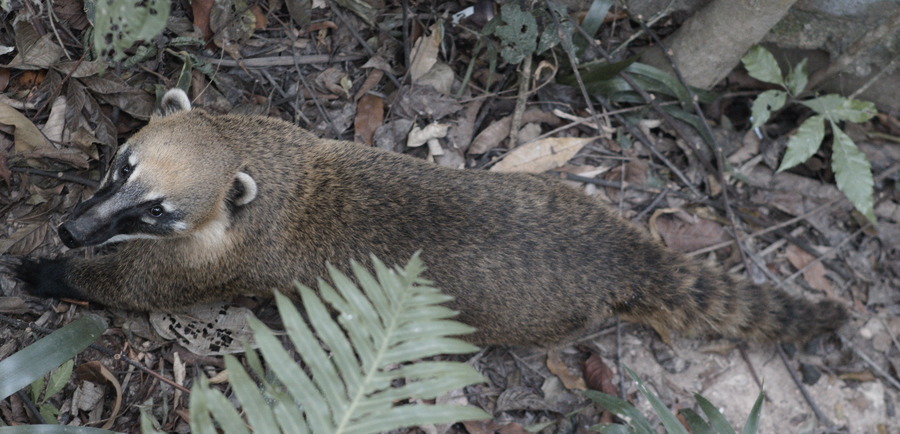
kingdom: Animalia
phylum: Chordata
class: Mammalia
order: Carnivora
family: Procyonidae
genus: Nasua
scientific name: Nasua nasua
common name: South american coati
